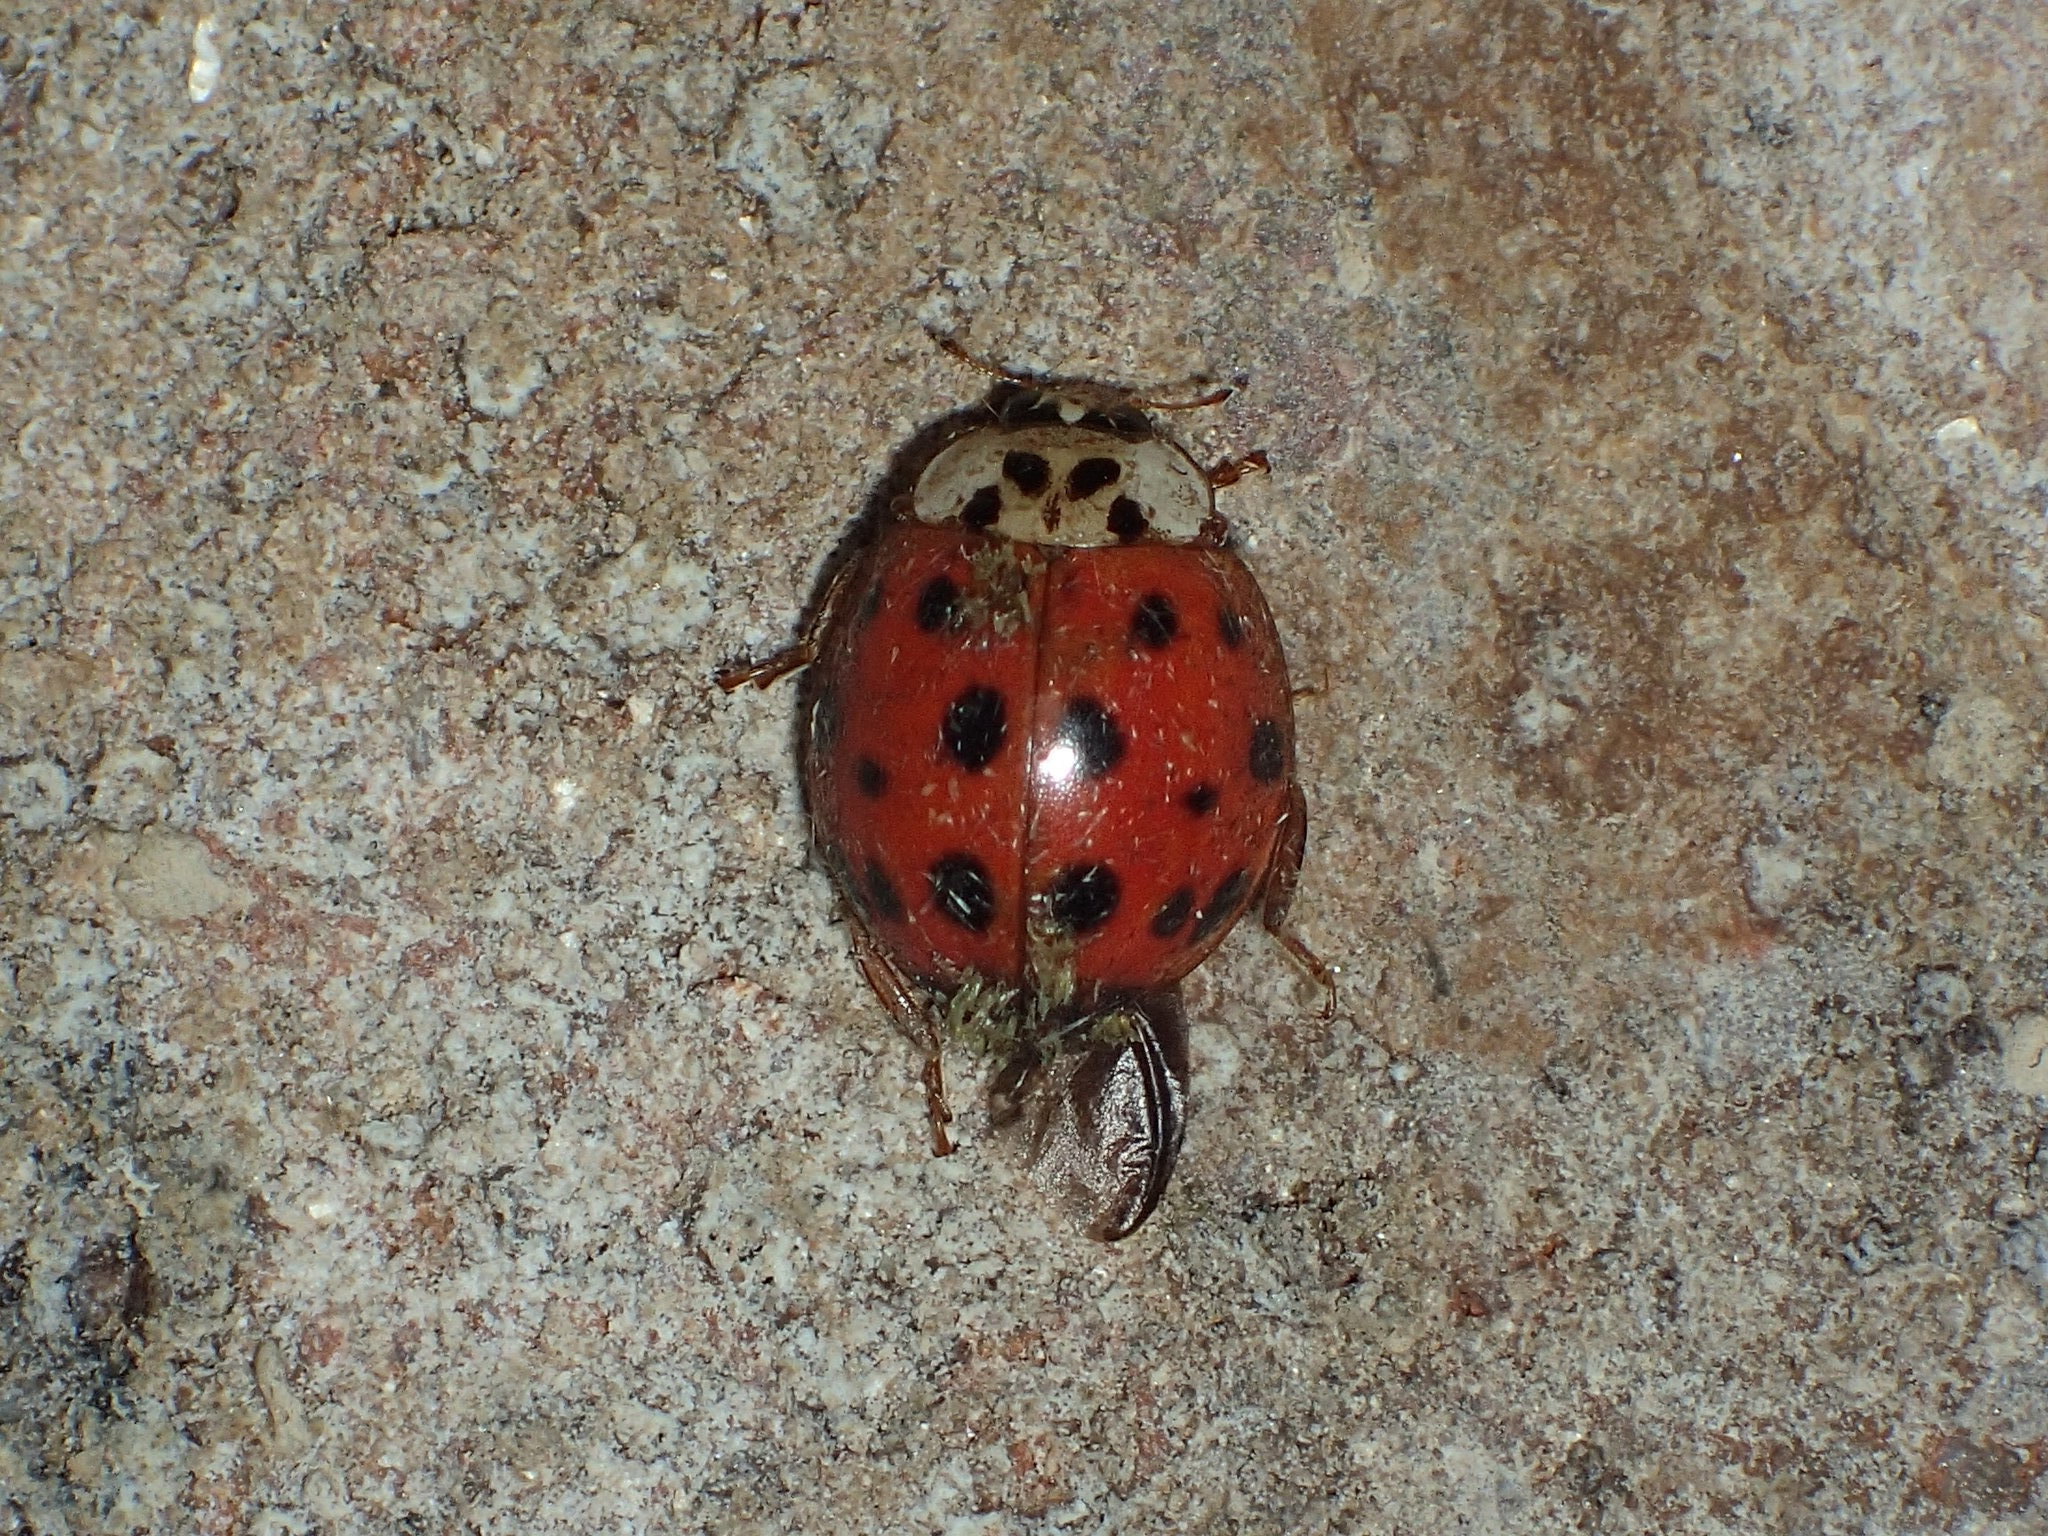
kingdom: Fungi
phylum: Ascomycota
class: Laboulbeniomycetes
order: Laboulbeniales
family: Laboulbeniaceae
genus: Hesperomyces
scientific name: Hesperomyces harmoniae
